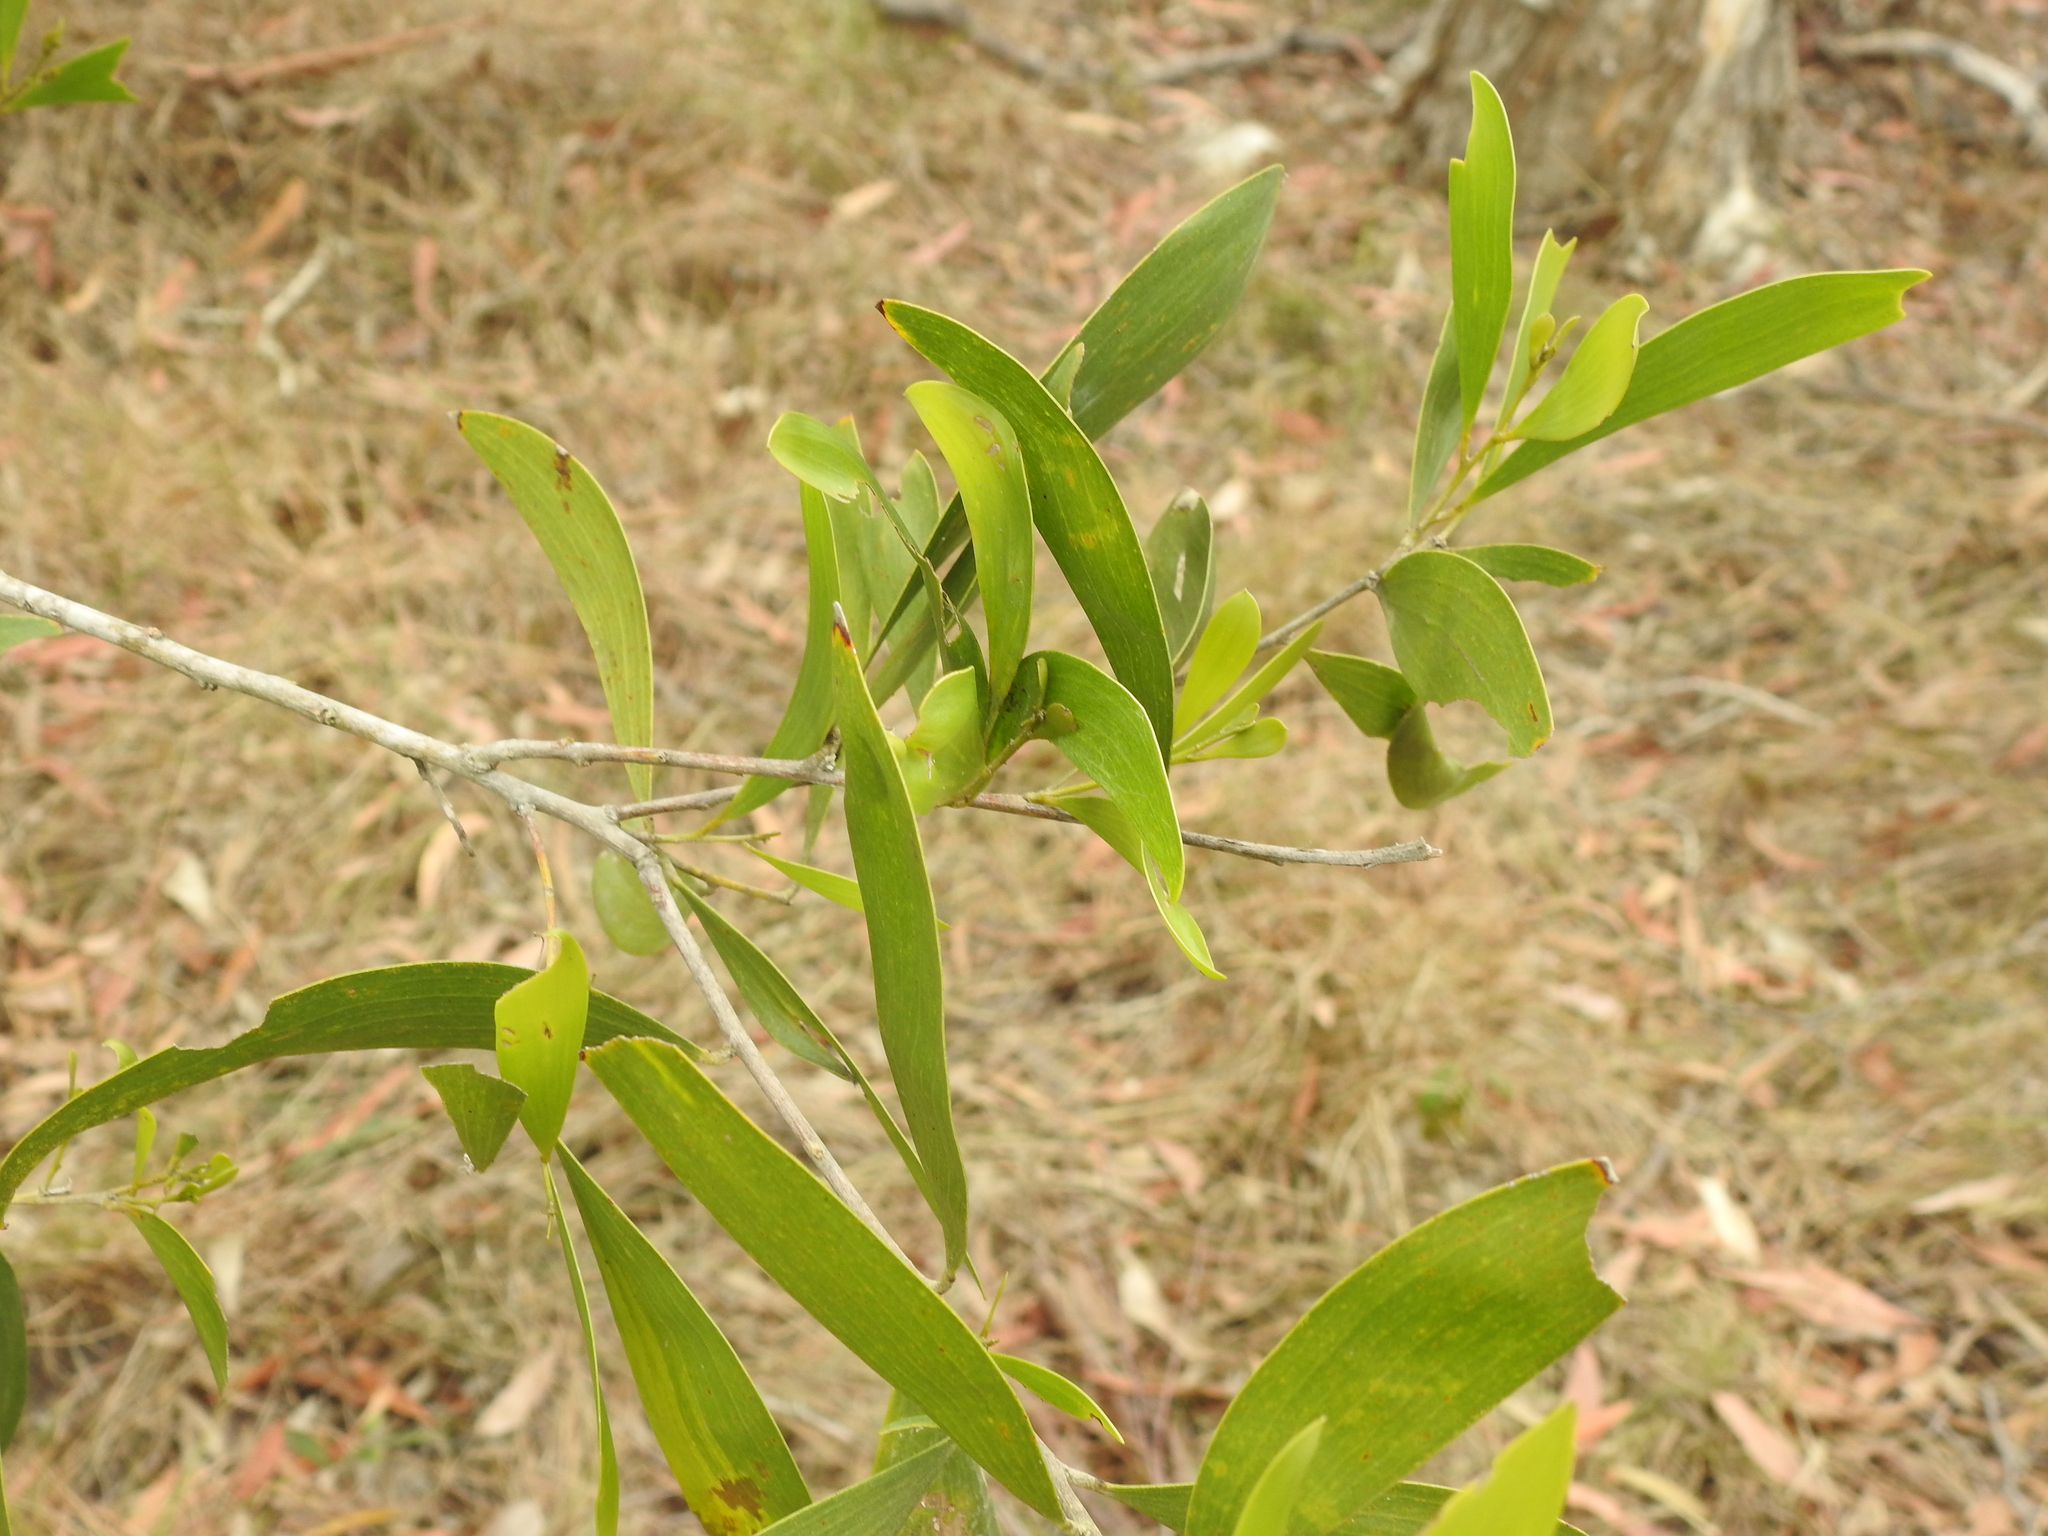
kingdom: Plantae
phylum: Tracheophyta
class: Magnoliopsida
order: Fabales
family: Fabaceae
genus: Acacia
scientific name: Acacia disparrima
